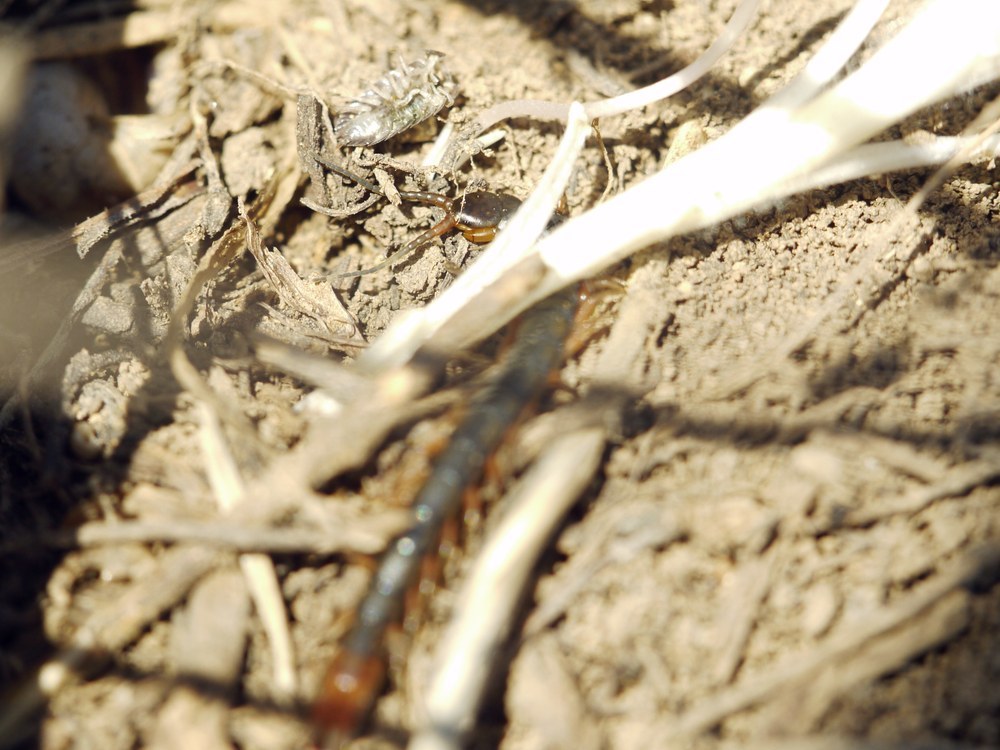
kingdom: Animalia
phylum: Arthropoda
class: Chilopoda
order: Scolopendromorpha
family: Scolopendridae
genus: Scolopendra
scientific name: Scolopendra cingulata
